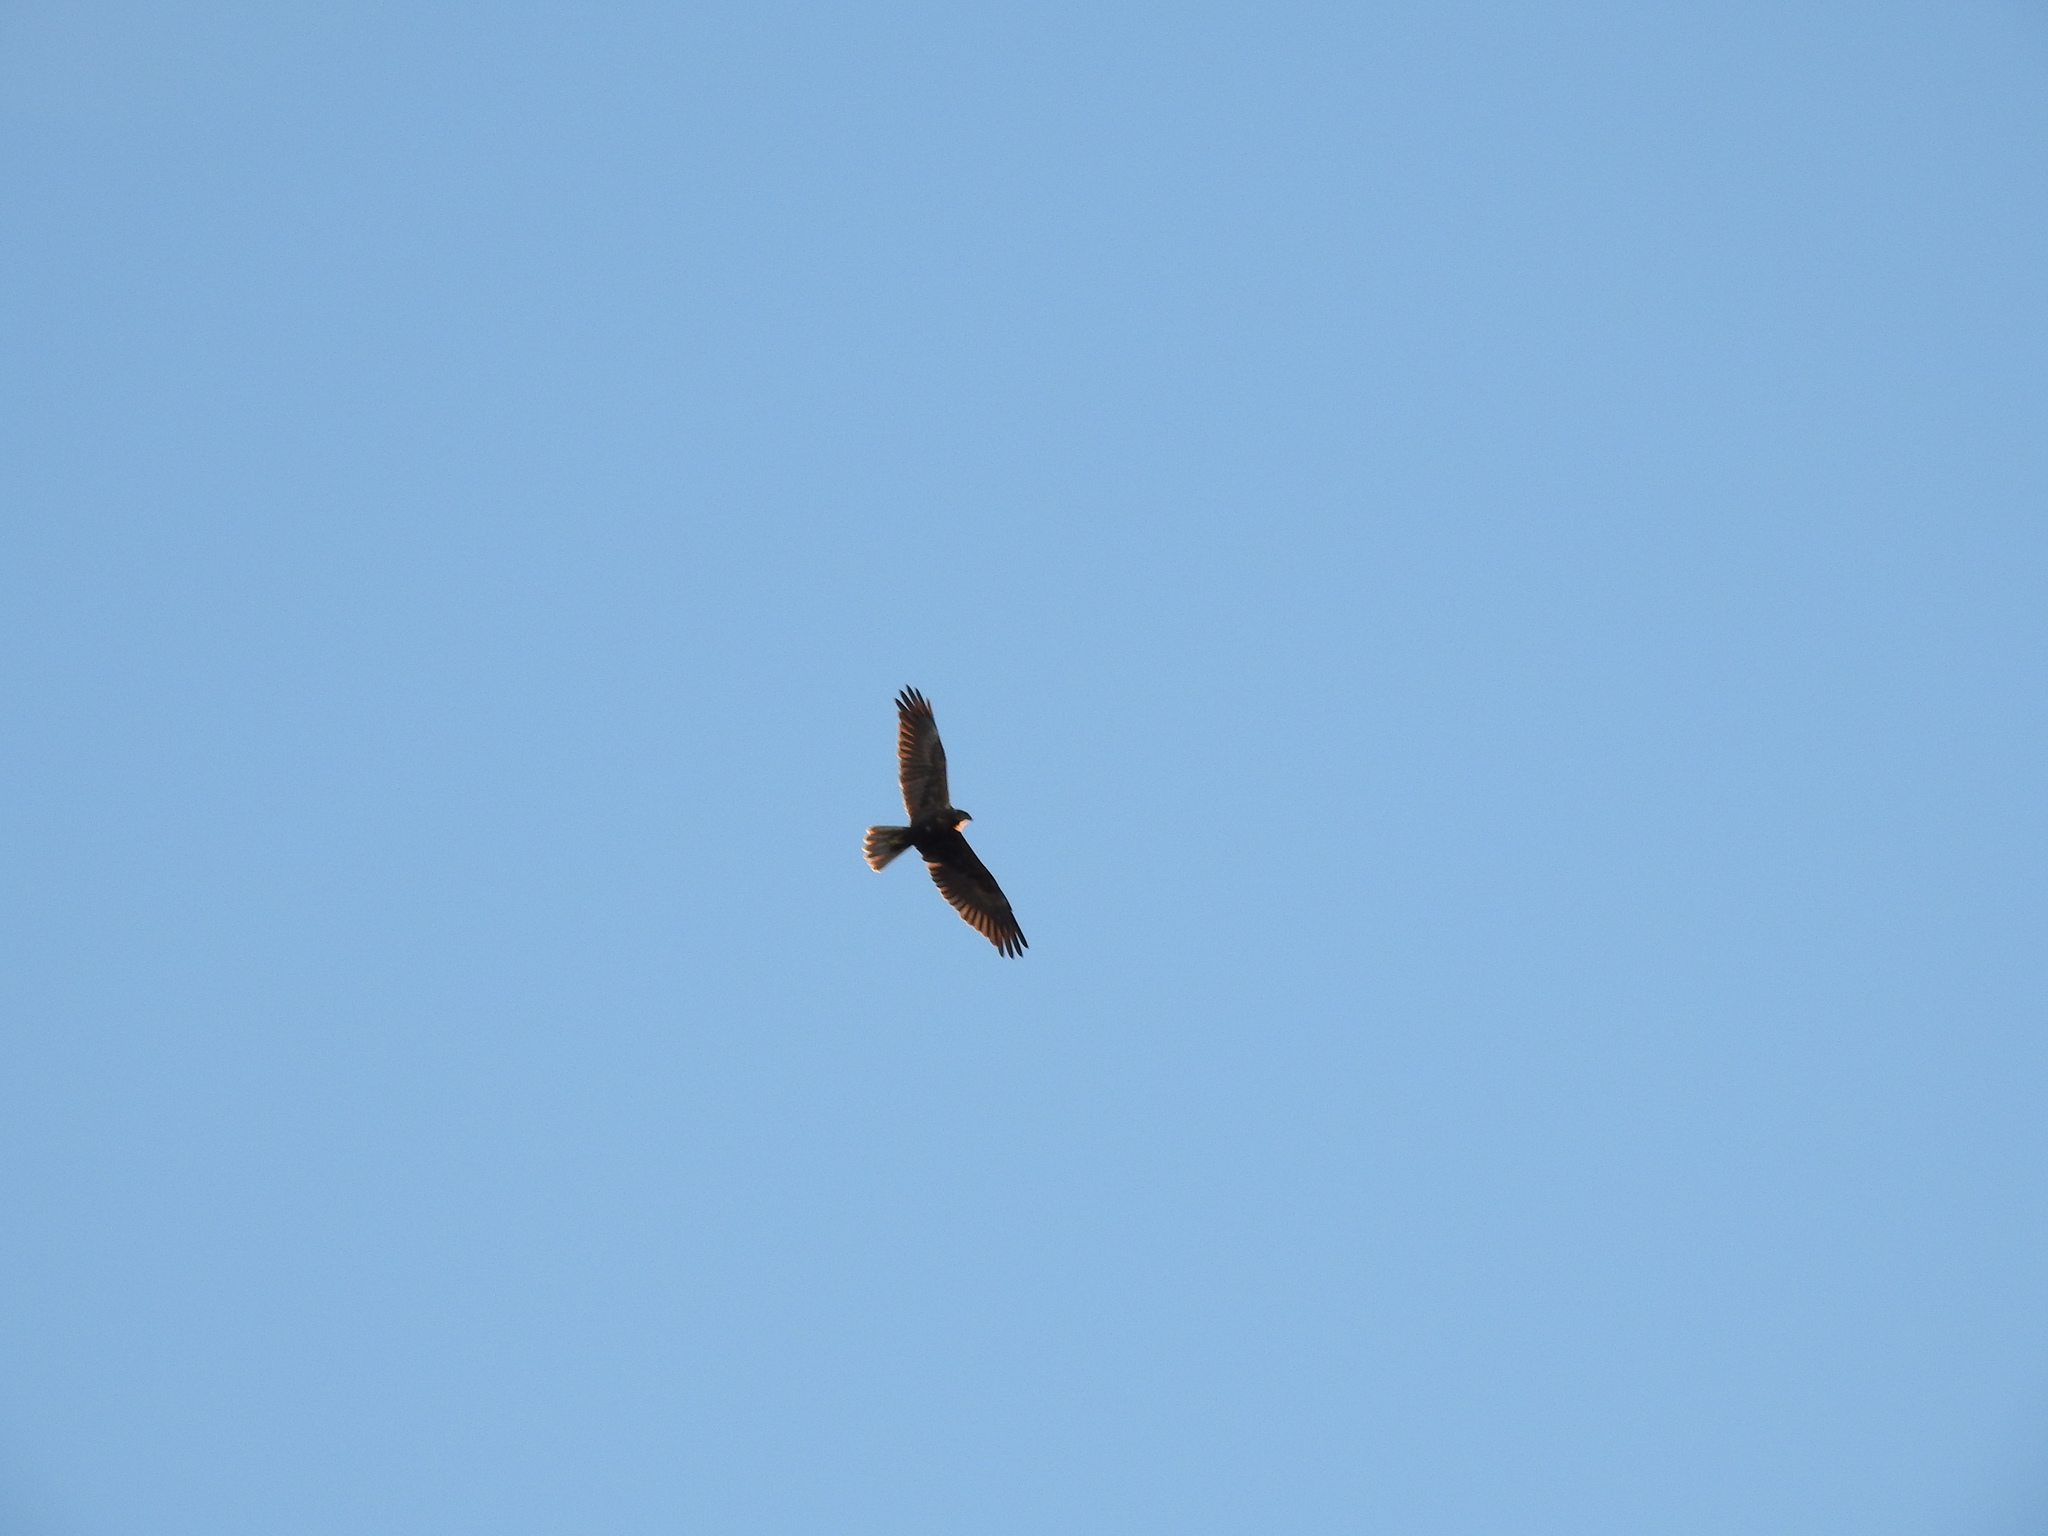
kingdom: Animalia
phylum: Chordata
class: Aves
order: Accipitriformes
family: Accipitridae
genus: Circus
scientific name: Circus aeruginosus
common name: Western marsh harrier
